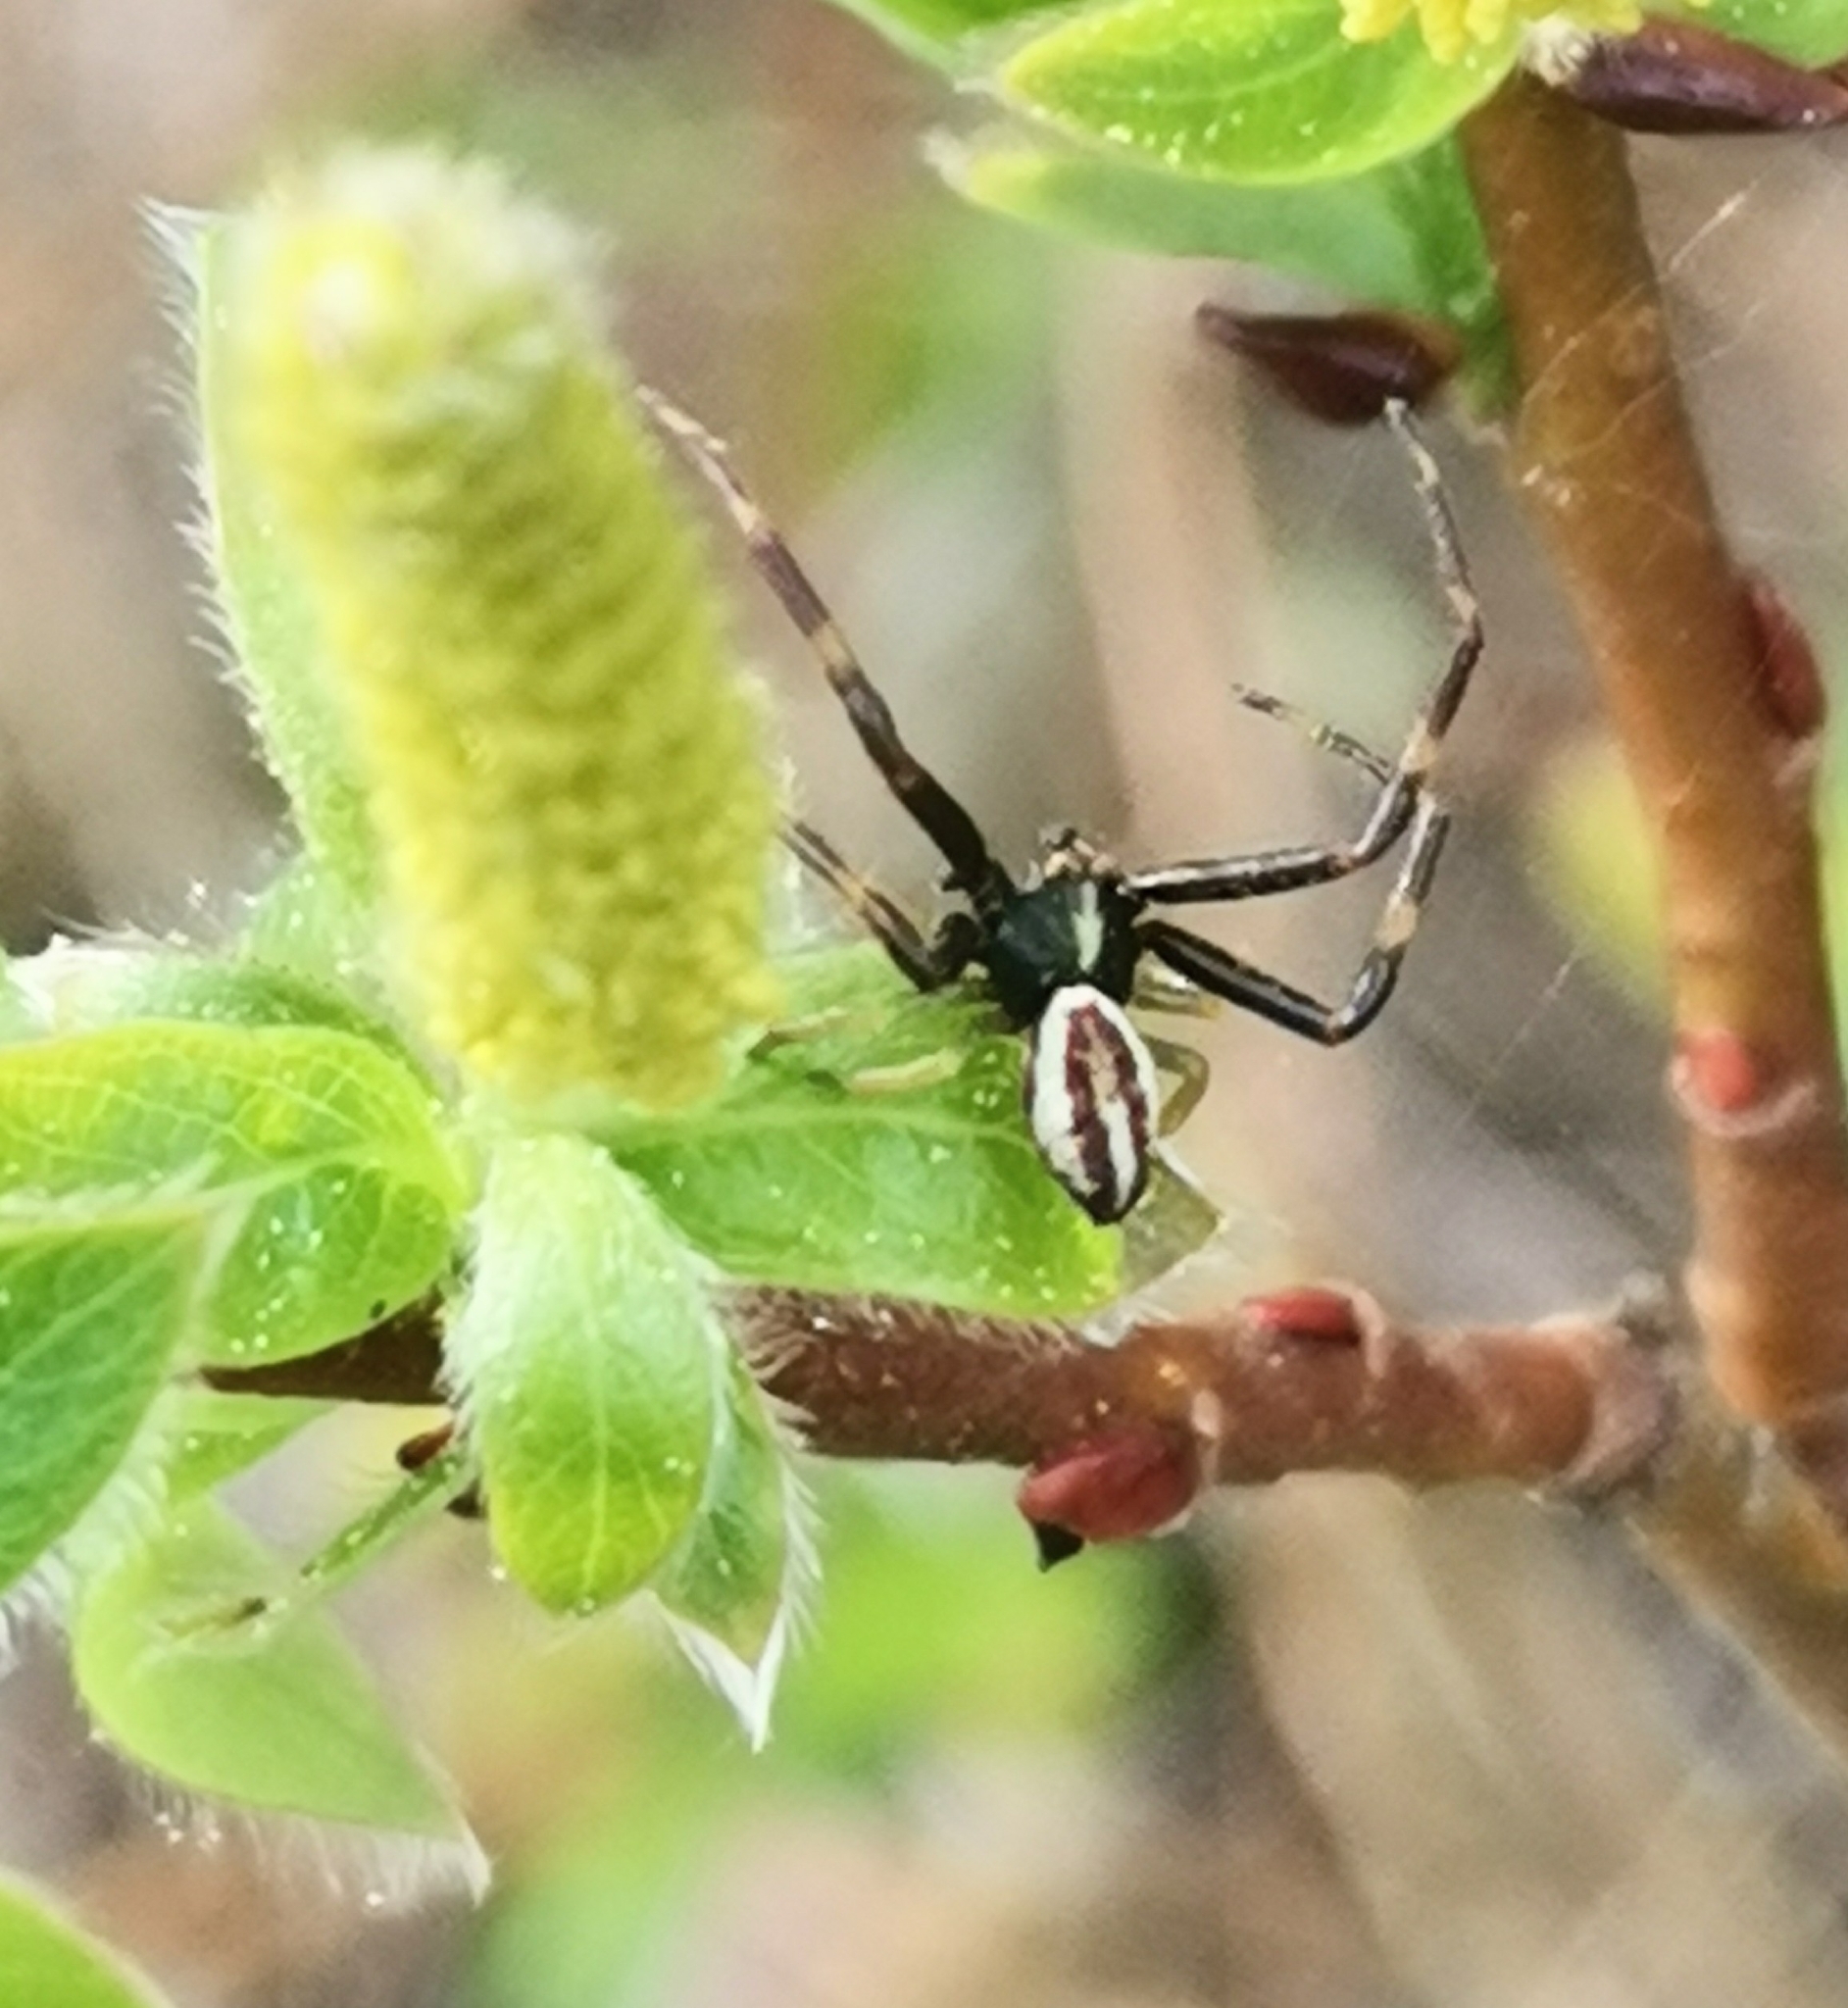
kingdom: Animalia
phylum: Arthropoda
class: Arachnida
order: Araneae
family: Thomisidae
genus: Misumena
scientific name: Misumena vatia
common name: Goldenrod crab spider
